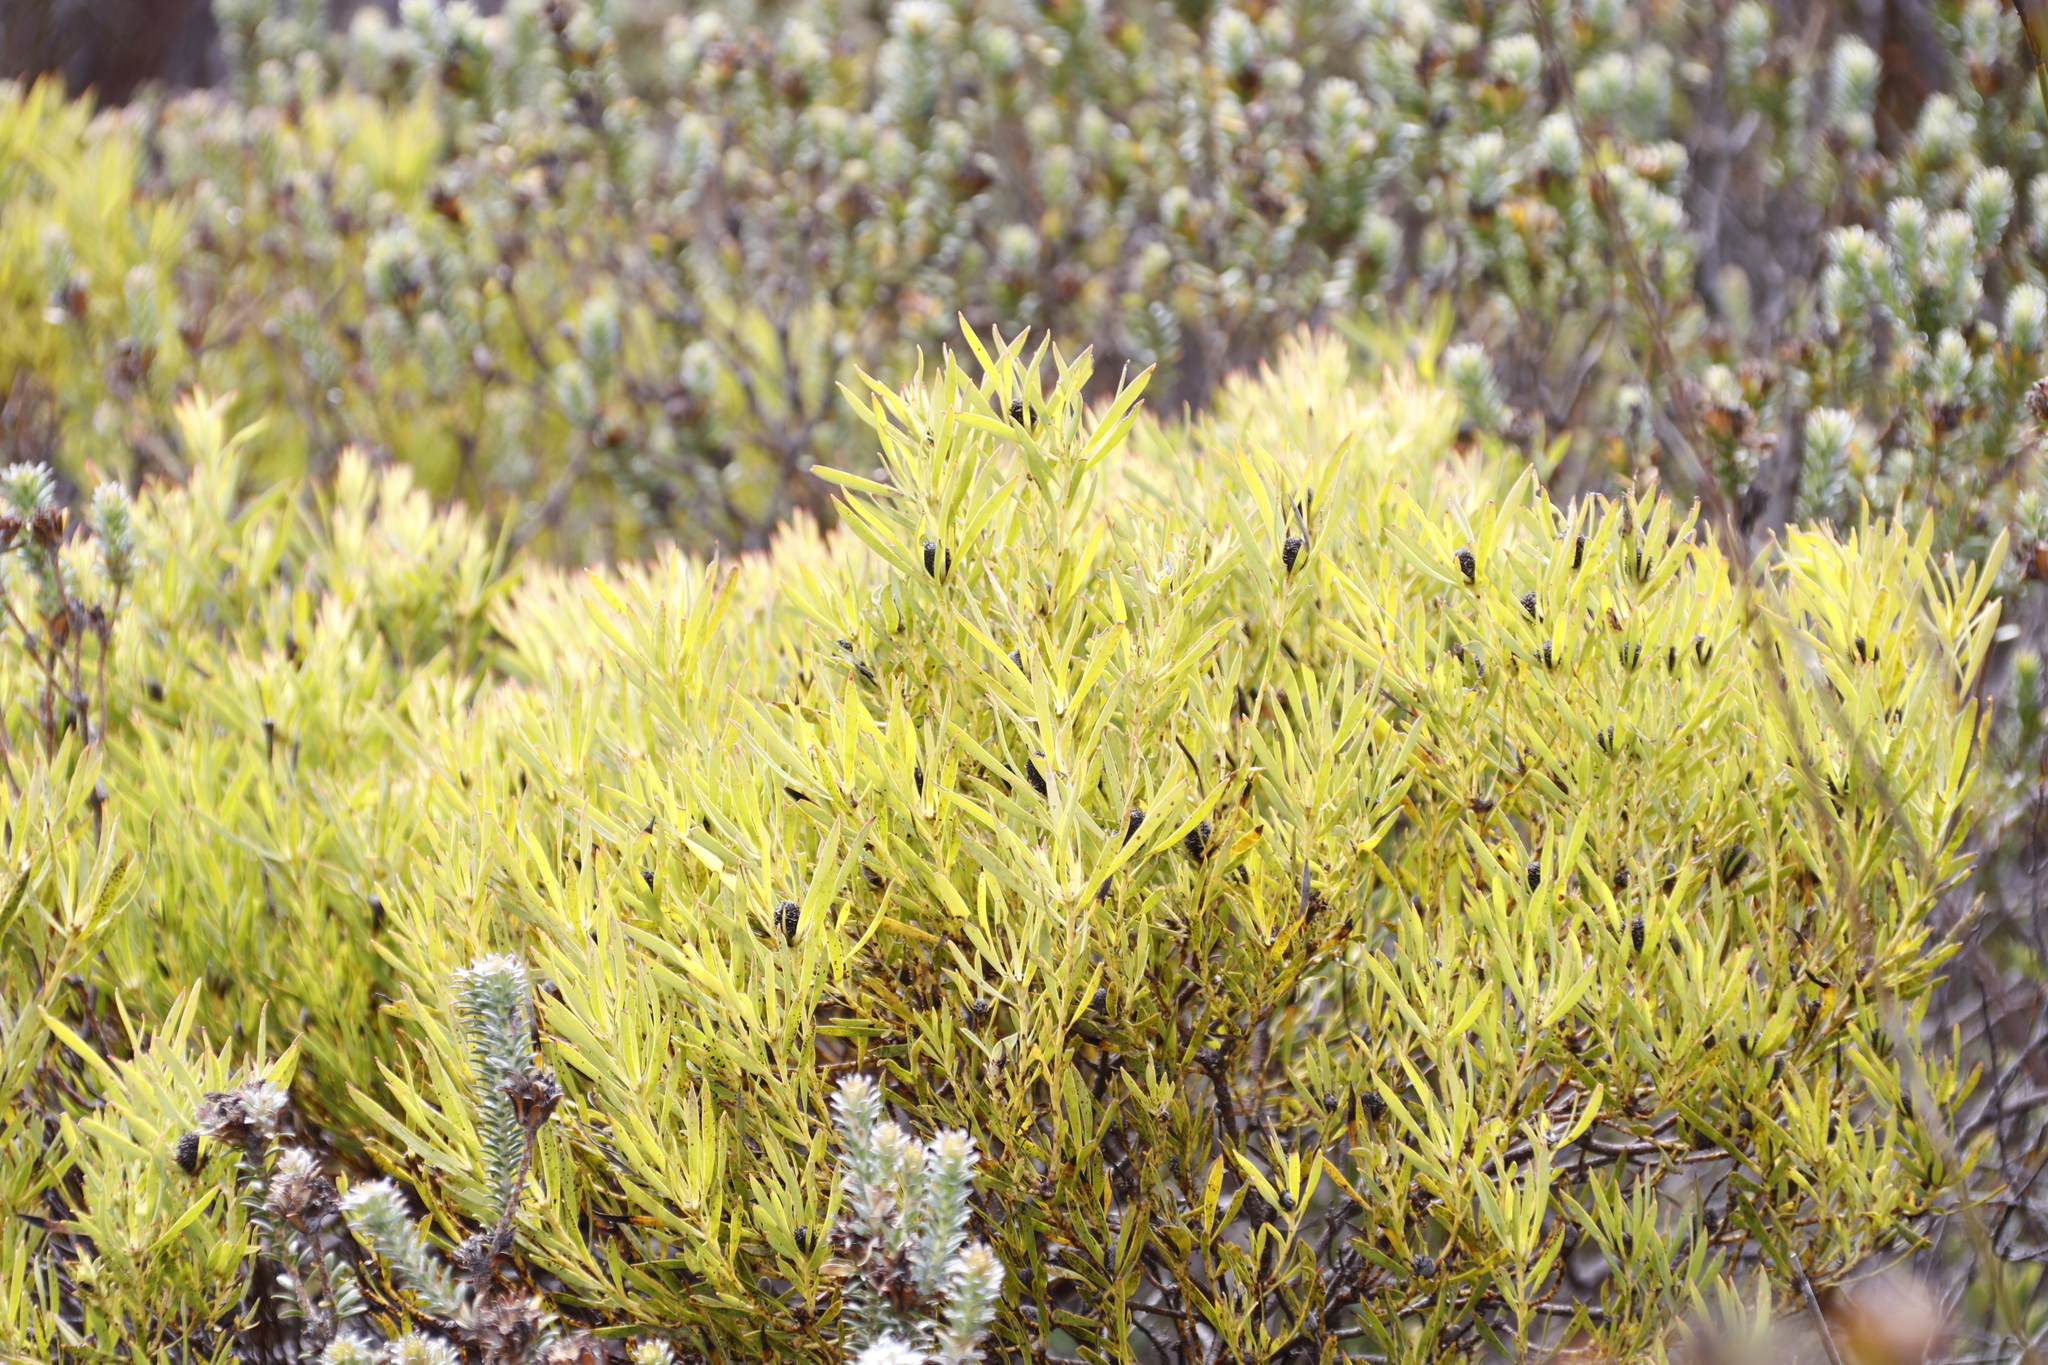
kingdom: Plantae
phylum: Tracheophyta
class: Magnoliopsida
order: Proteales
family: Proteaceae
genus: Leucadendron
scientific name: Leucadendron salignum
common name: Common sunshine conebush
